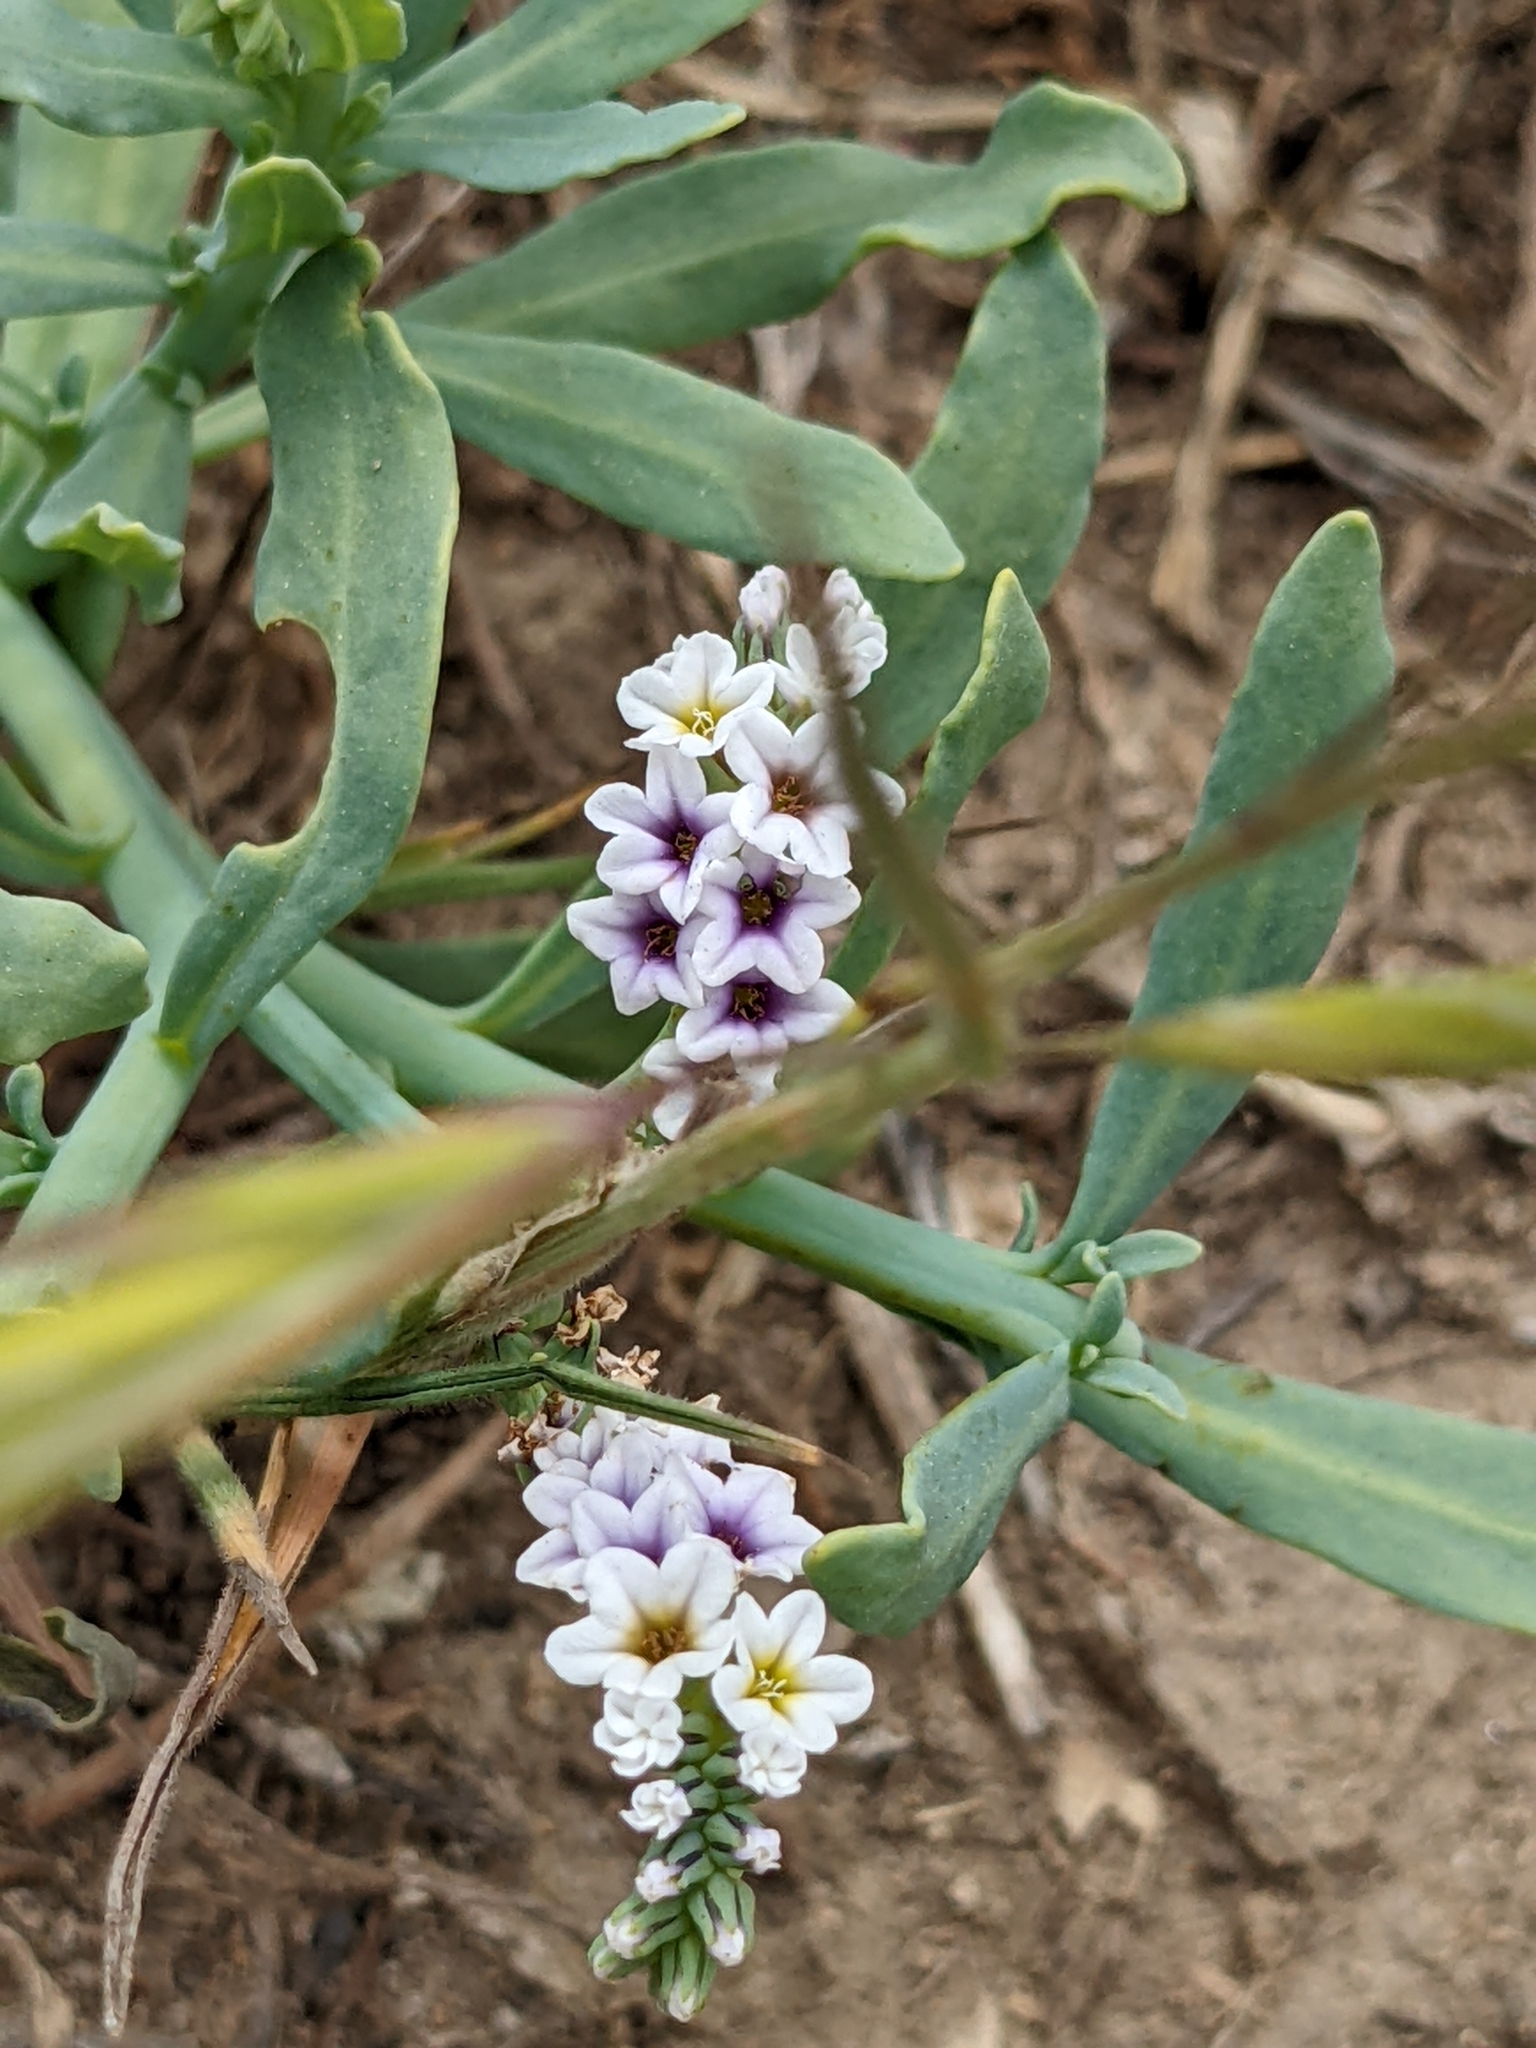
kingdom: Plantae
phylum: Tracheophyta
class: Magnoliopsida
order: Boraginales
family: Heliotropiaceae
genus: Heliotropium
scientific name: Heliotropium curassavicum
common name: Seaside heliotrope
